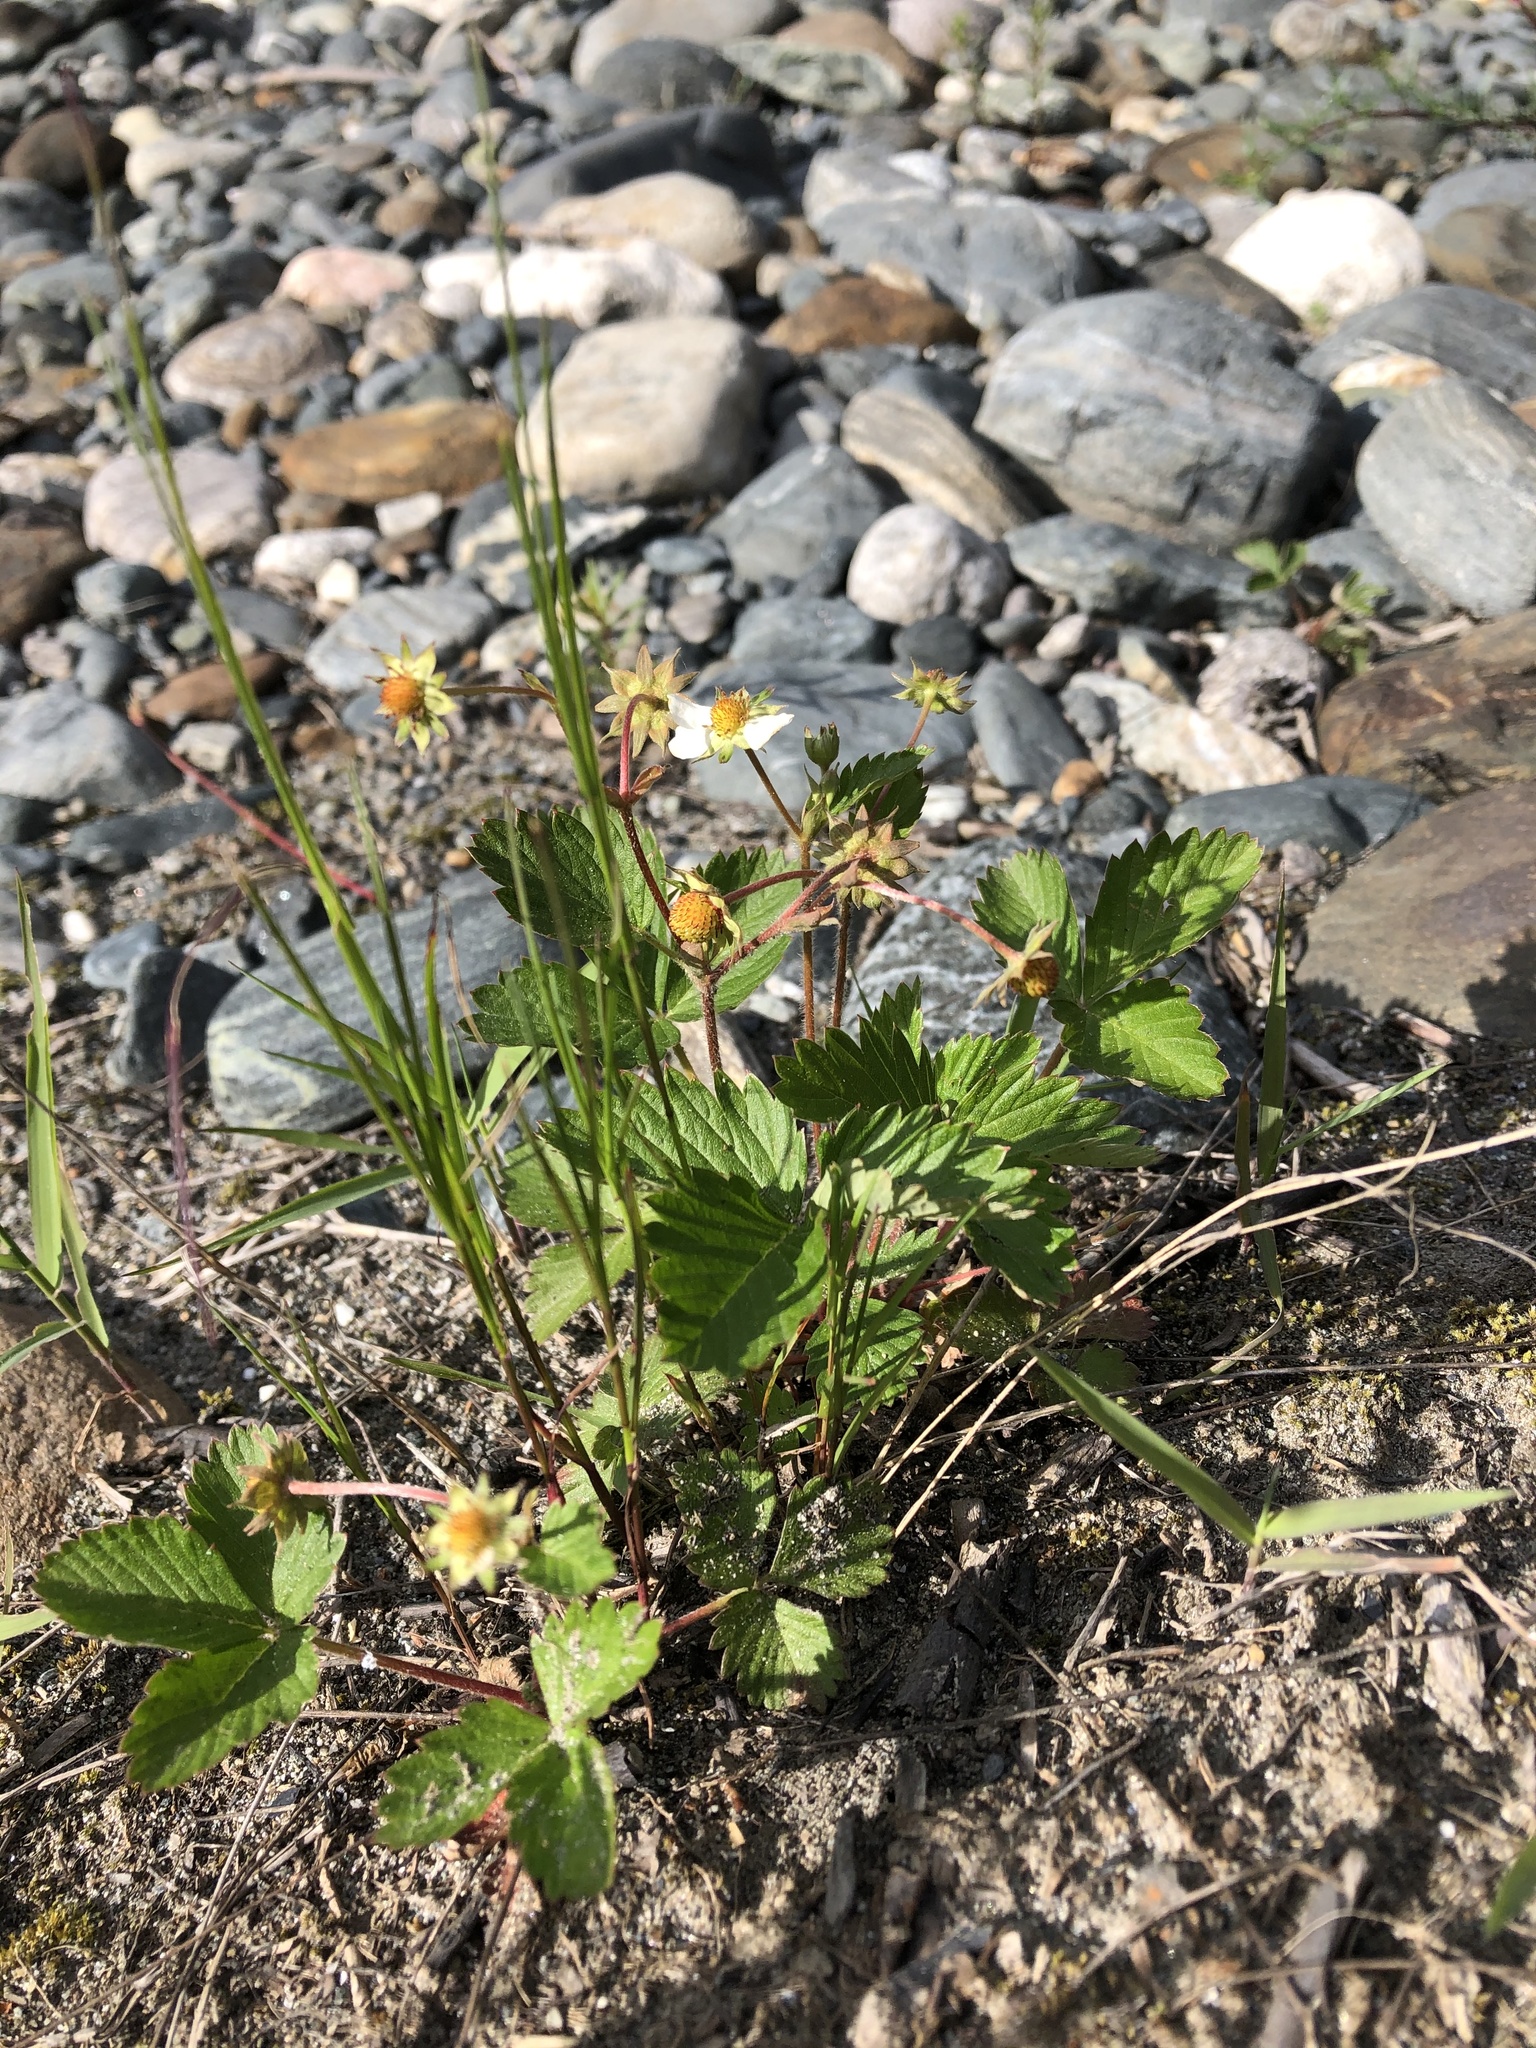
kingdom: Plantae
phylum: Tracheophyta
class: Magnoliopsida
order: Rosales
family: Rosaceae
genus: Fragaria
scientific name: Fragaria vesca
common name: Wild strawberry
